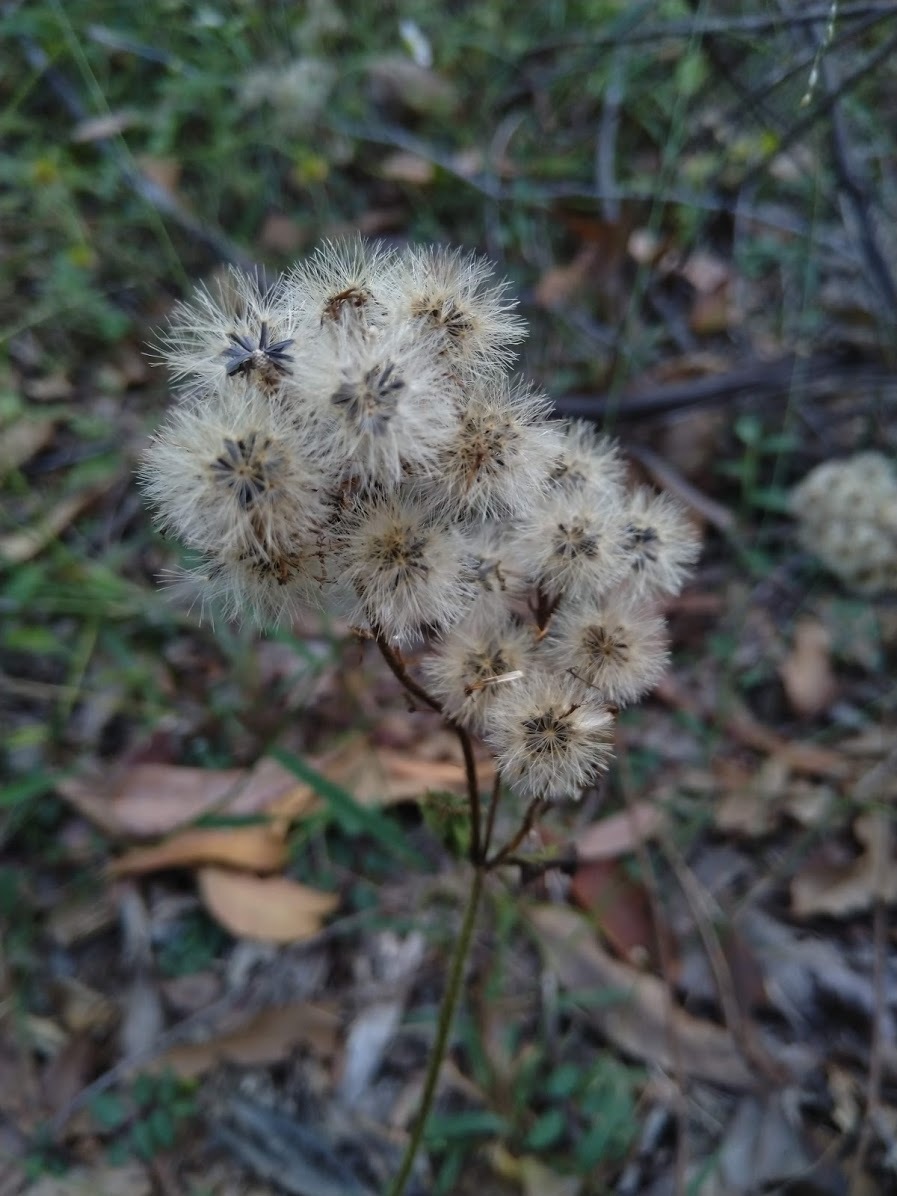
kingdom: Plantae
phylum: Tracheophyta
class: Magnoliopsida
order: Asterales
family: Asteraceae
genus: Praxelis
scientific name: Praxelis clematidea
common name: Praxelis
